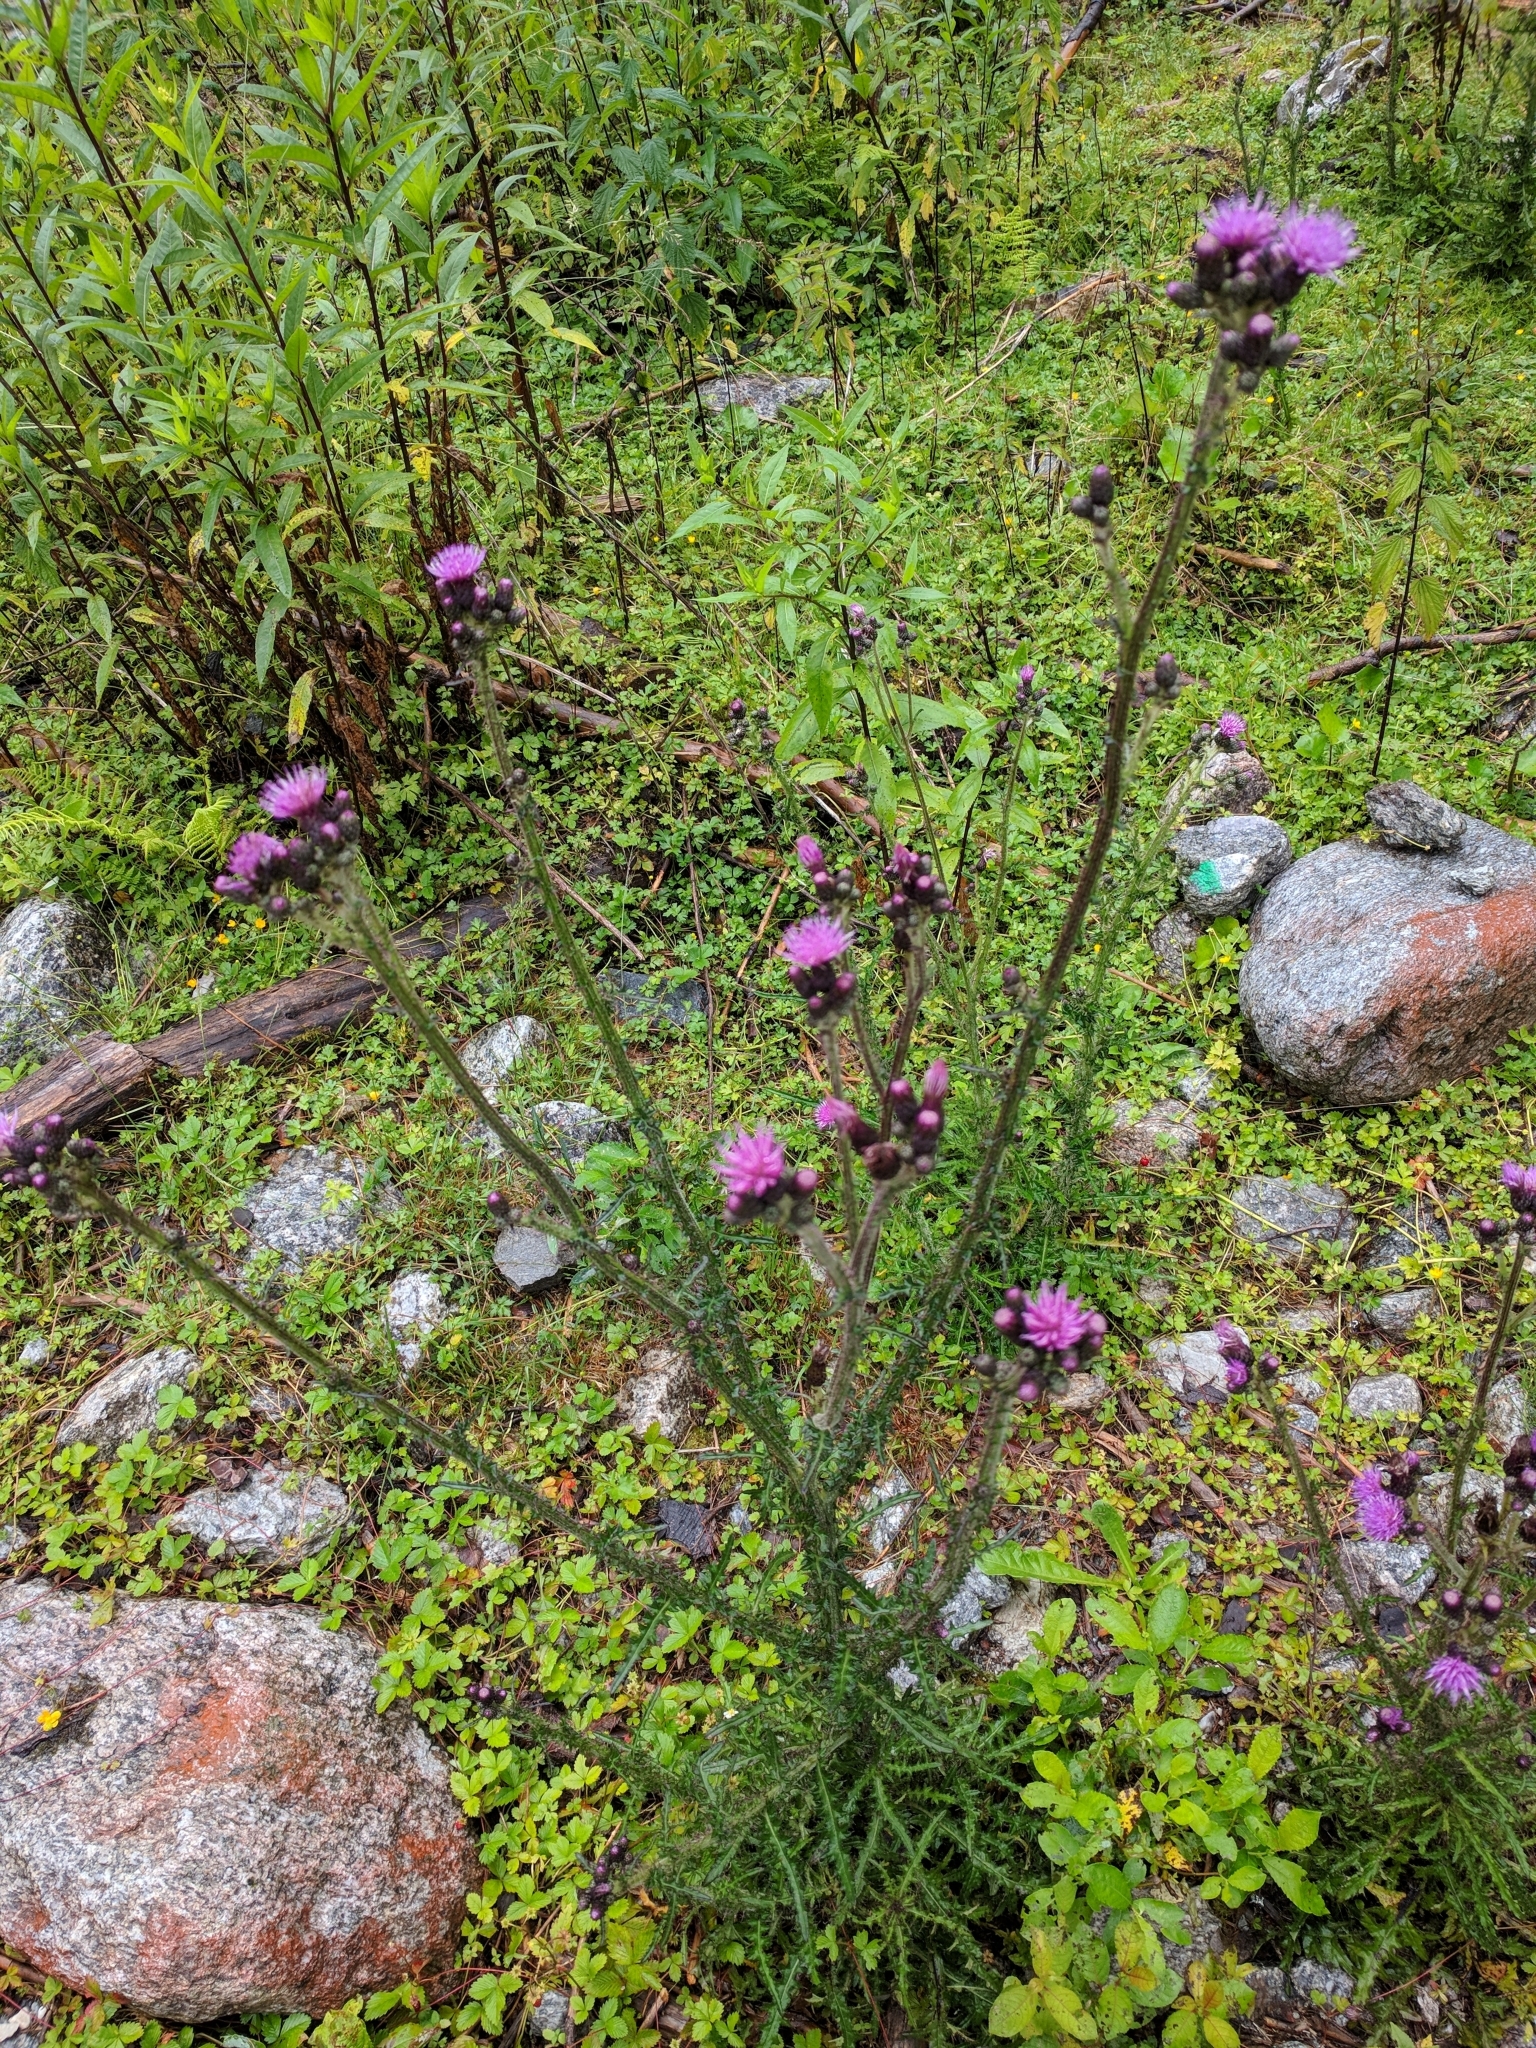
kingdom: Plantae
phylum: Tracheophyta
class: Magnoliopsida
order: Asterales
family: Asteraceae
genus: Cirsium
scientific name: Cirsium palustre
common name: Marsh thistle
